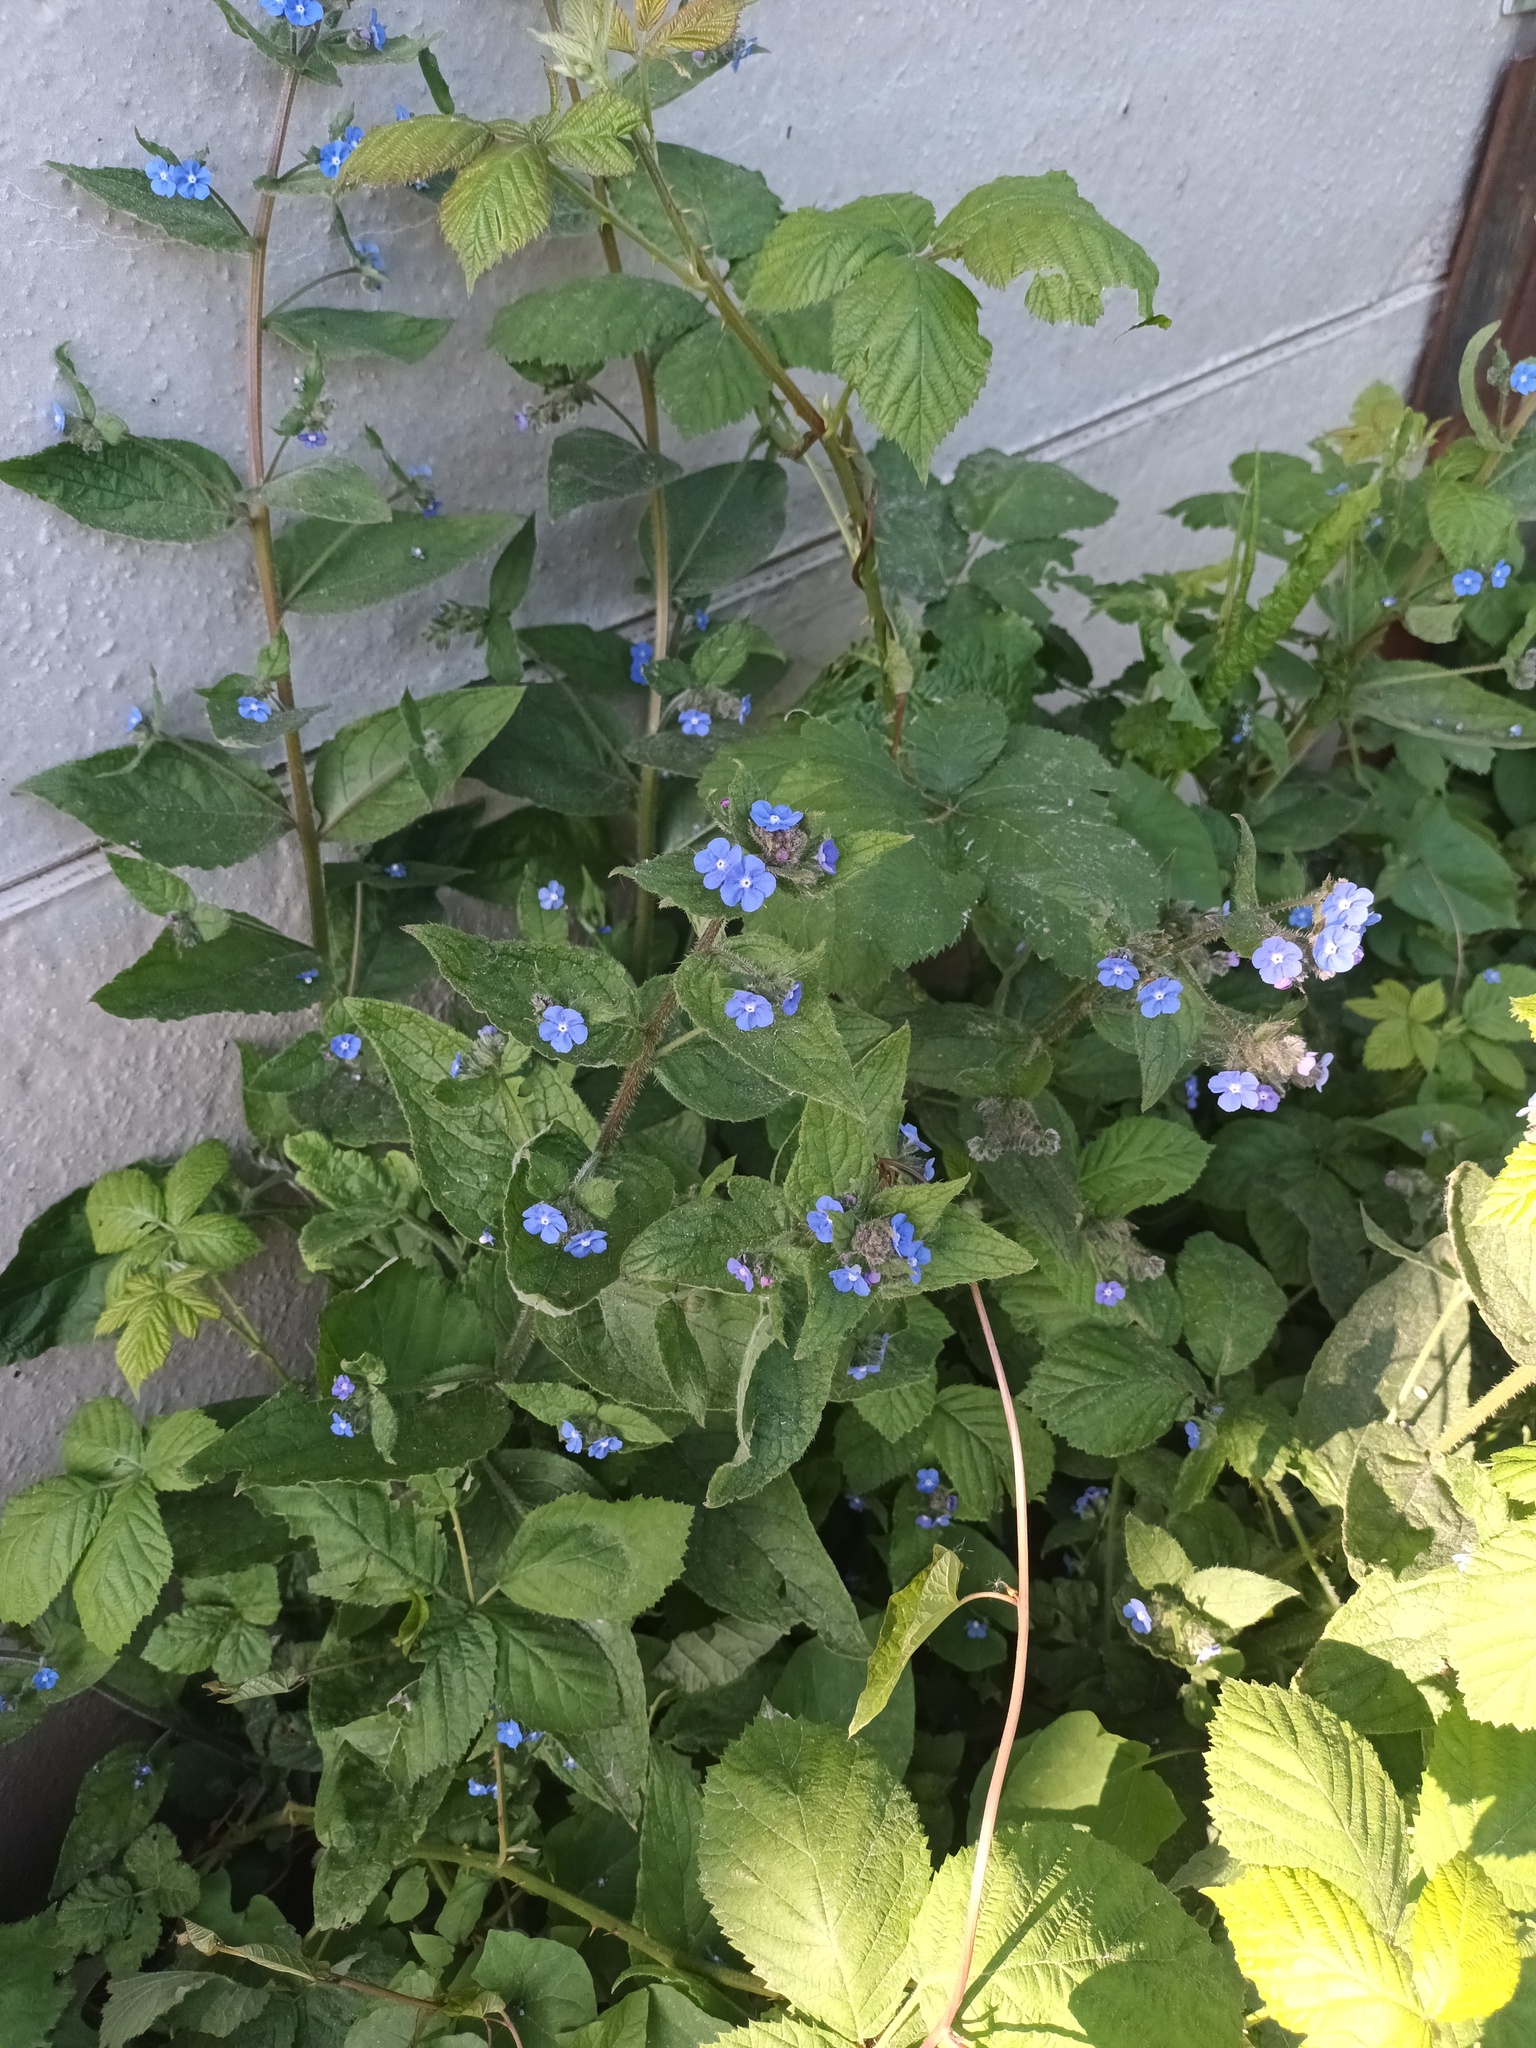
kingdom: Plantae
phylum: Tracheophyta
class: Magnoliopsida
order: Boraginales
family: Boraginaceae
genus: Pentaglottis
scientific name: Pentaglottis sempervirens
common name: Green alkanet
